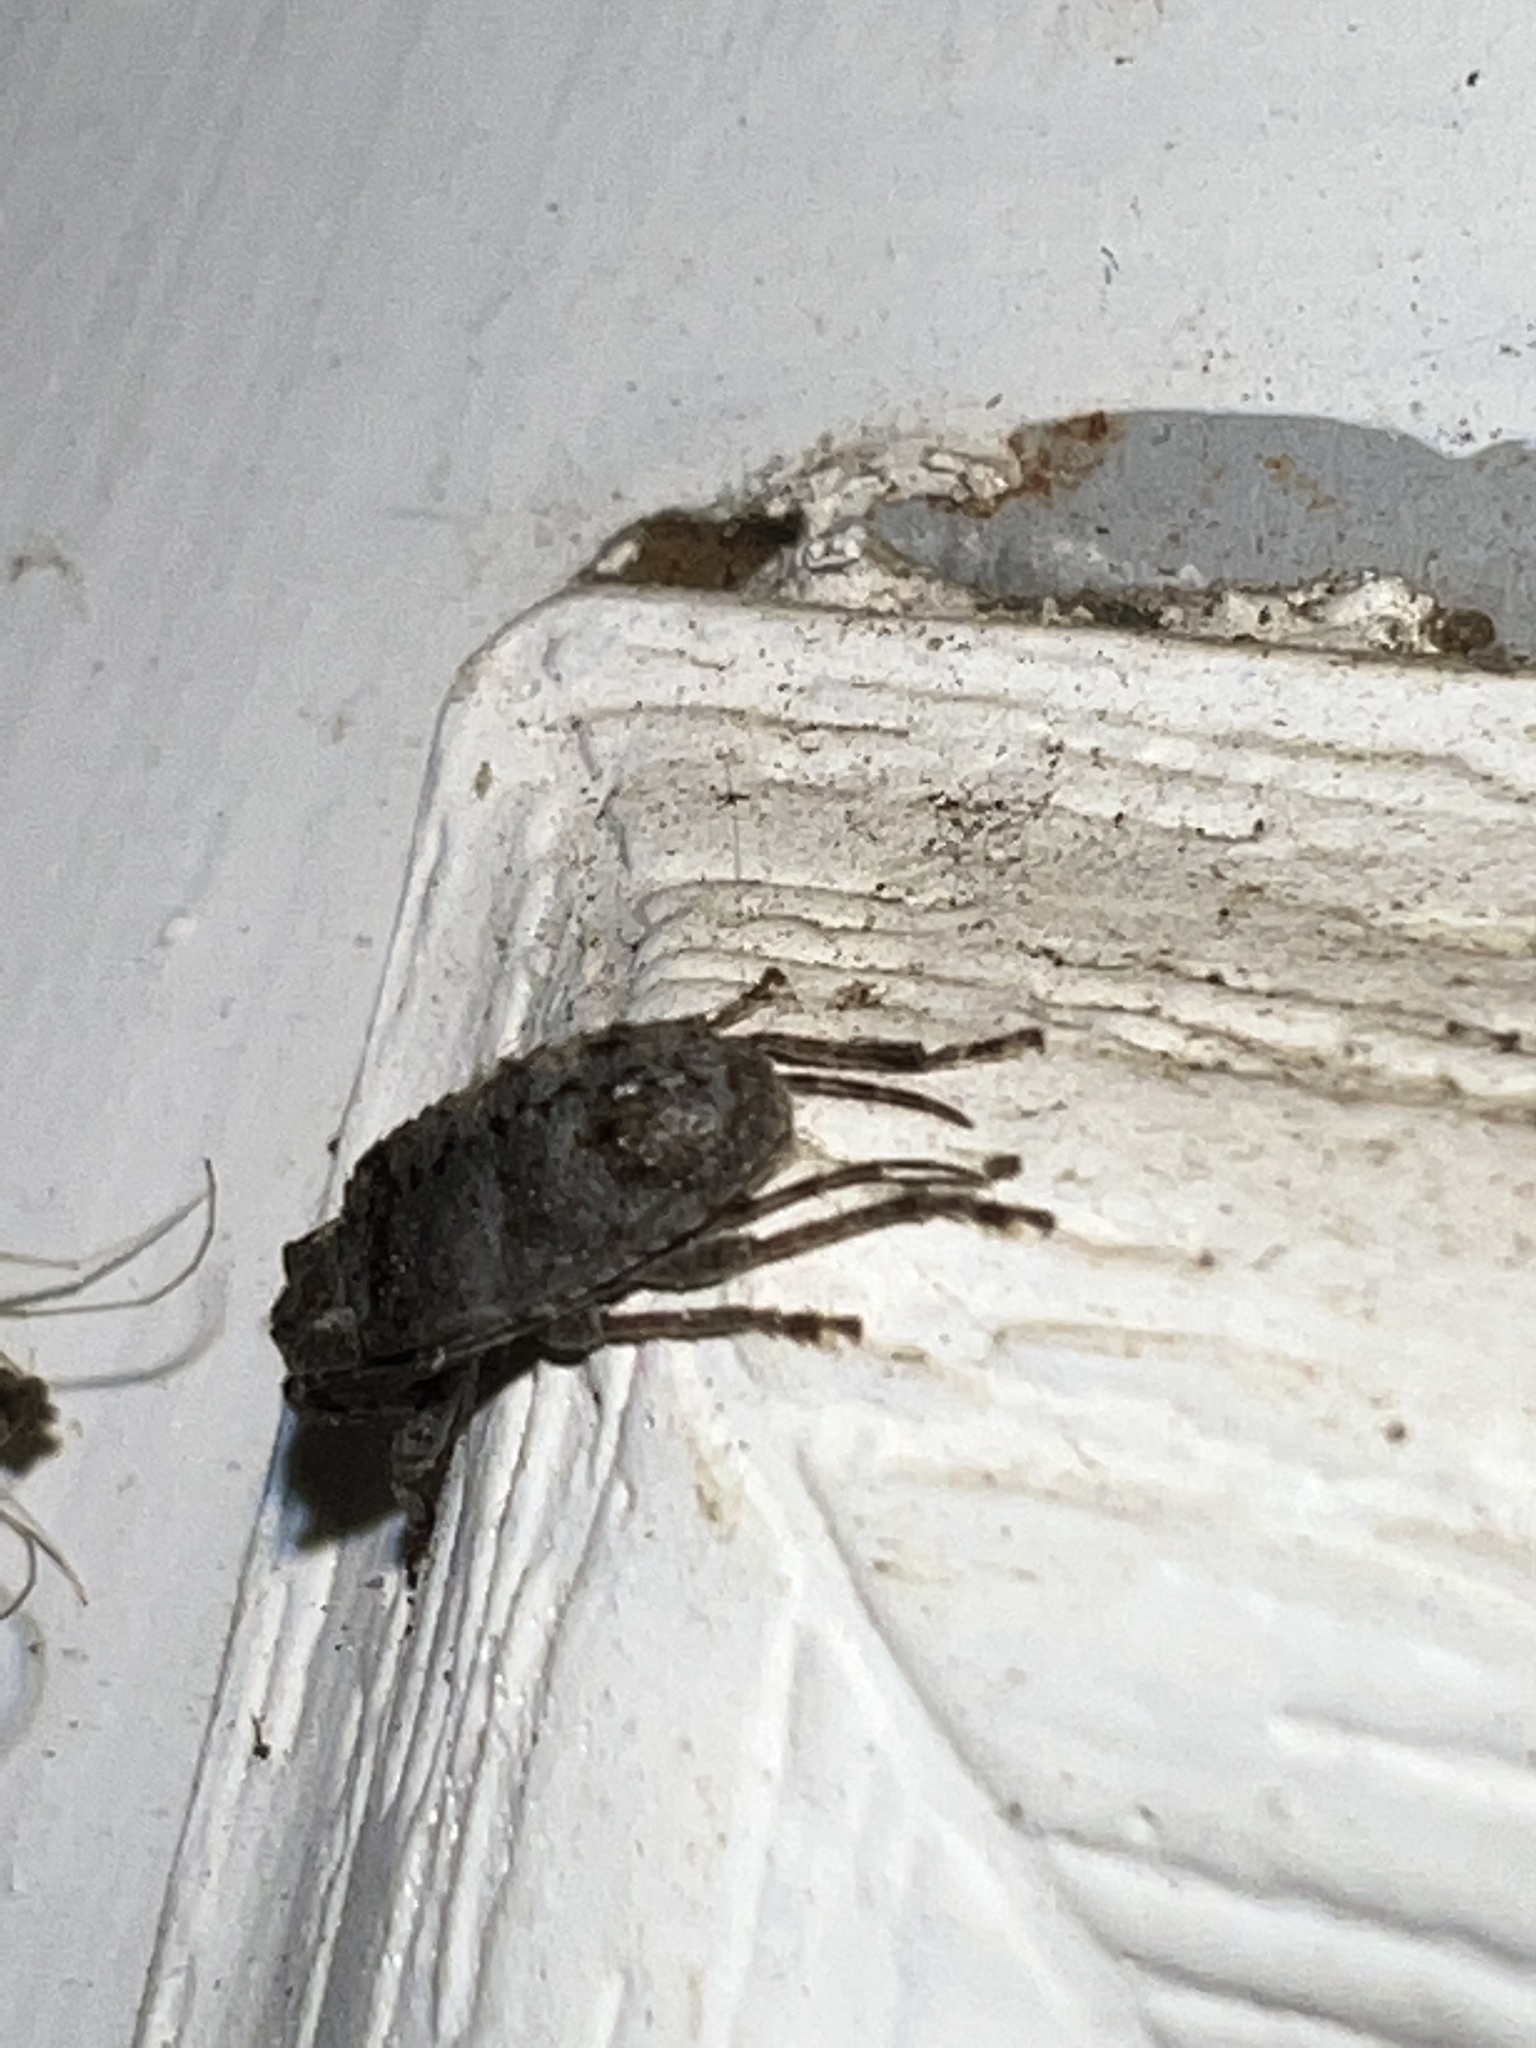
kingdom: Animalia
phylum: Arthropoda
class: Insecta
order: Coleoptera
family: Cerambycidae
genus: Ecyrus
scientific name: Ecyrus dasycerus
